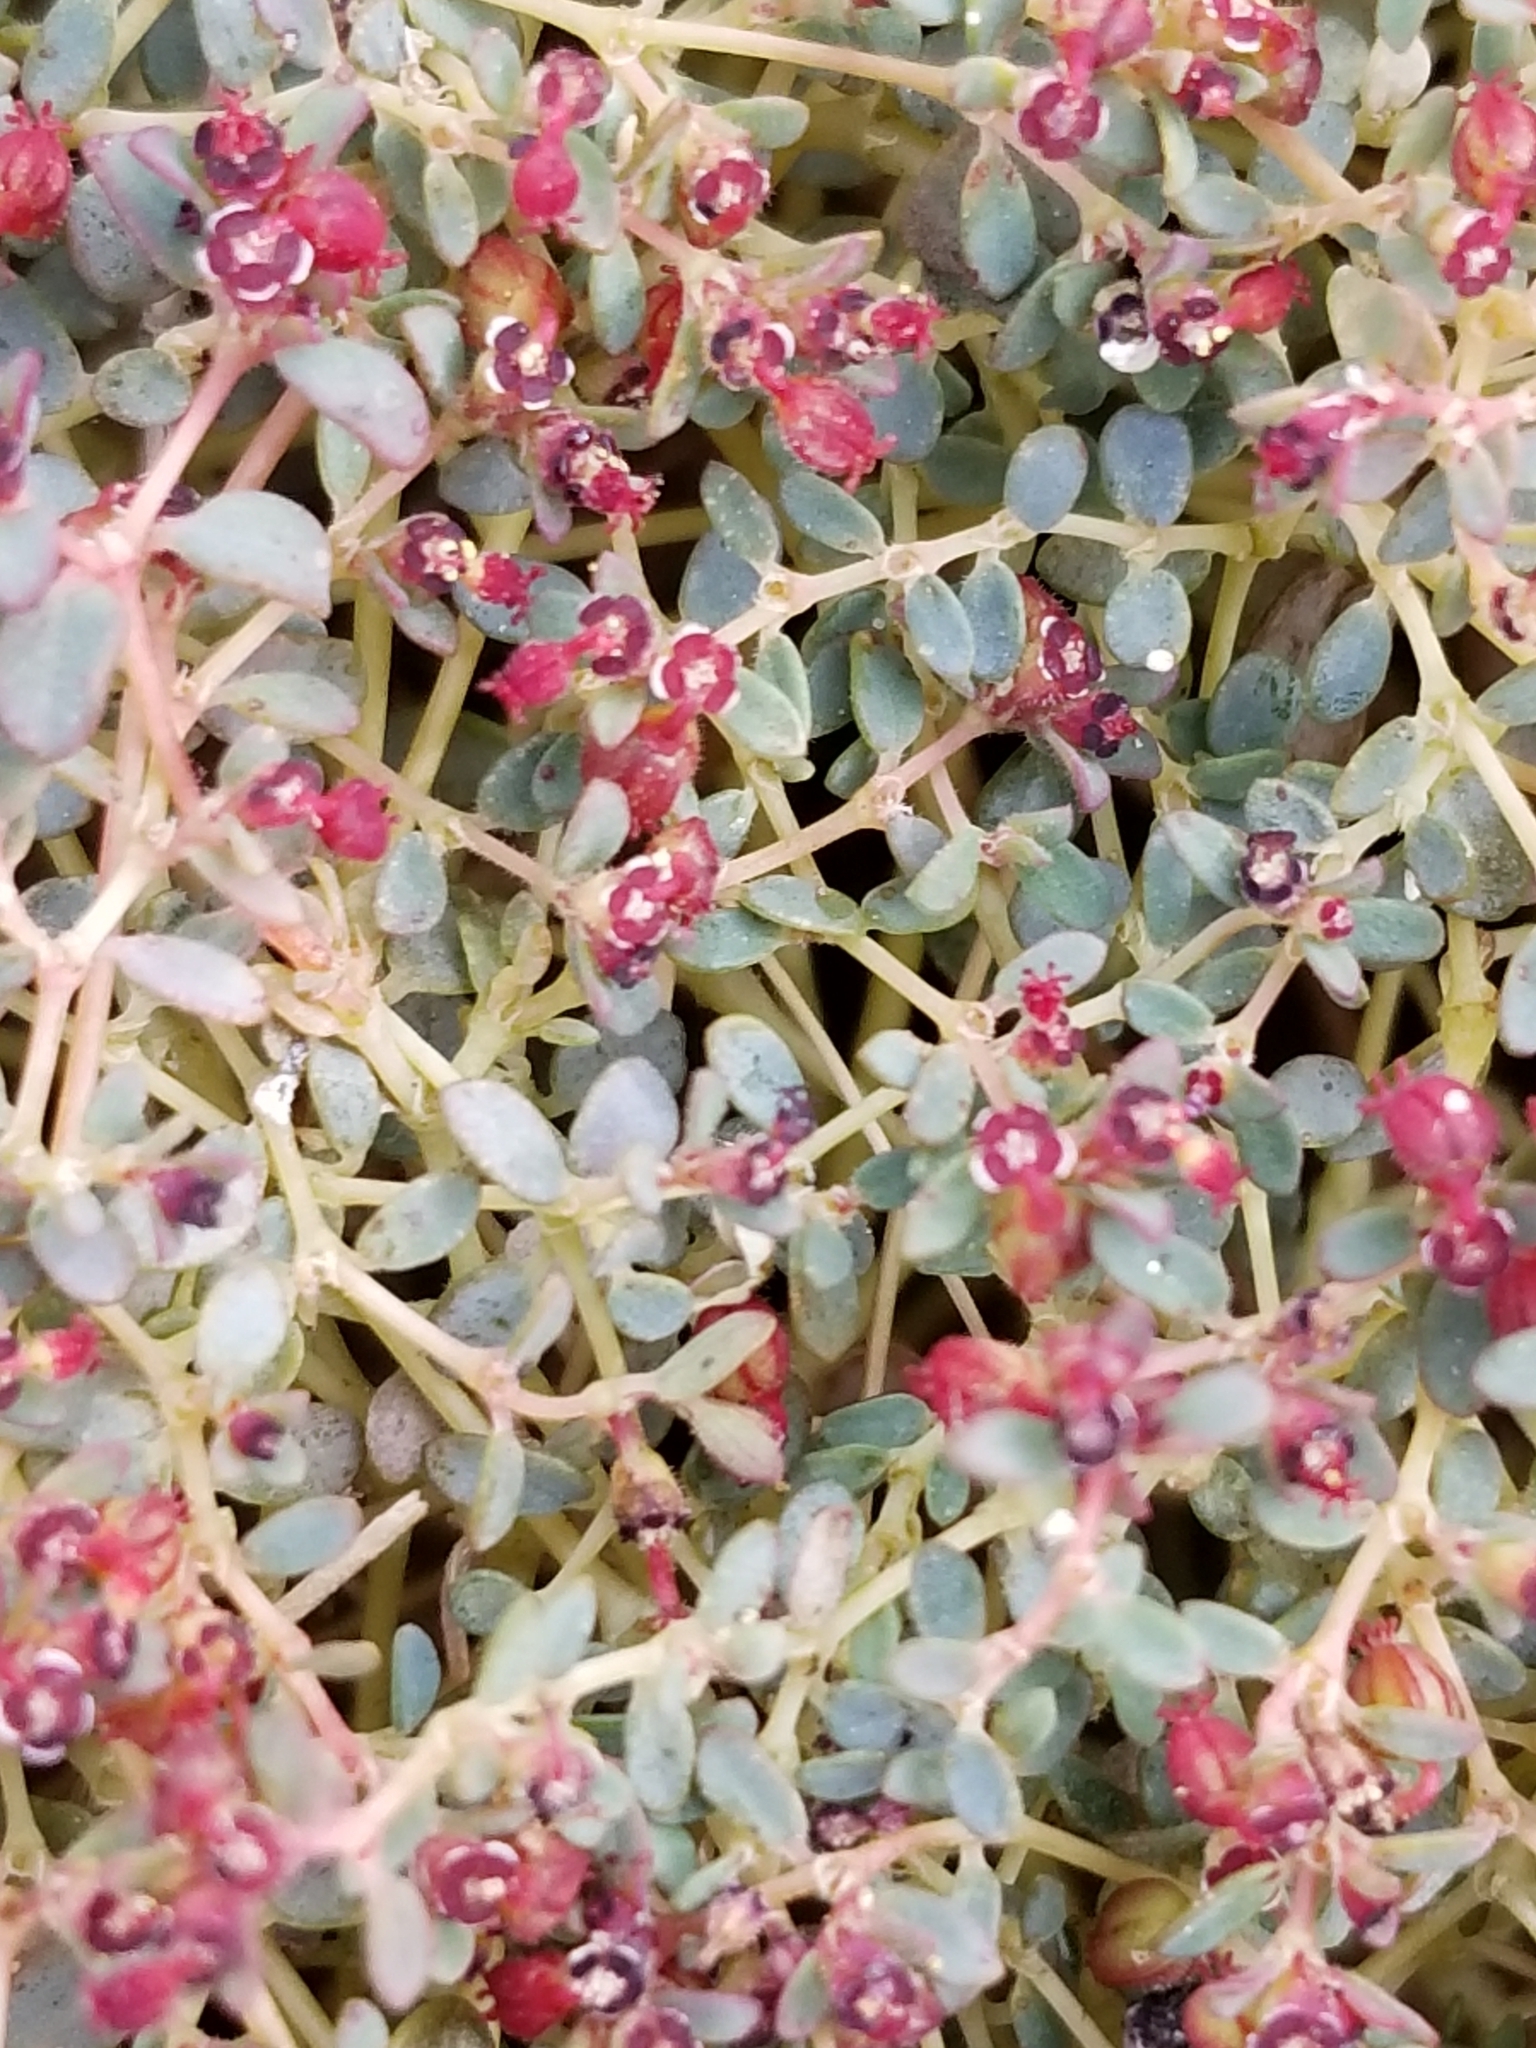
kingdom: Plantae
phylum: Tracheophyta
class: Magnoliopsida
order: Malpighiales
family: Euphorbiaceae
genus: Euphorbia
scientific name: Euphorbia polycarpa
